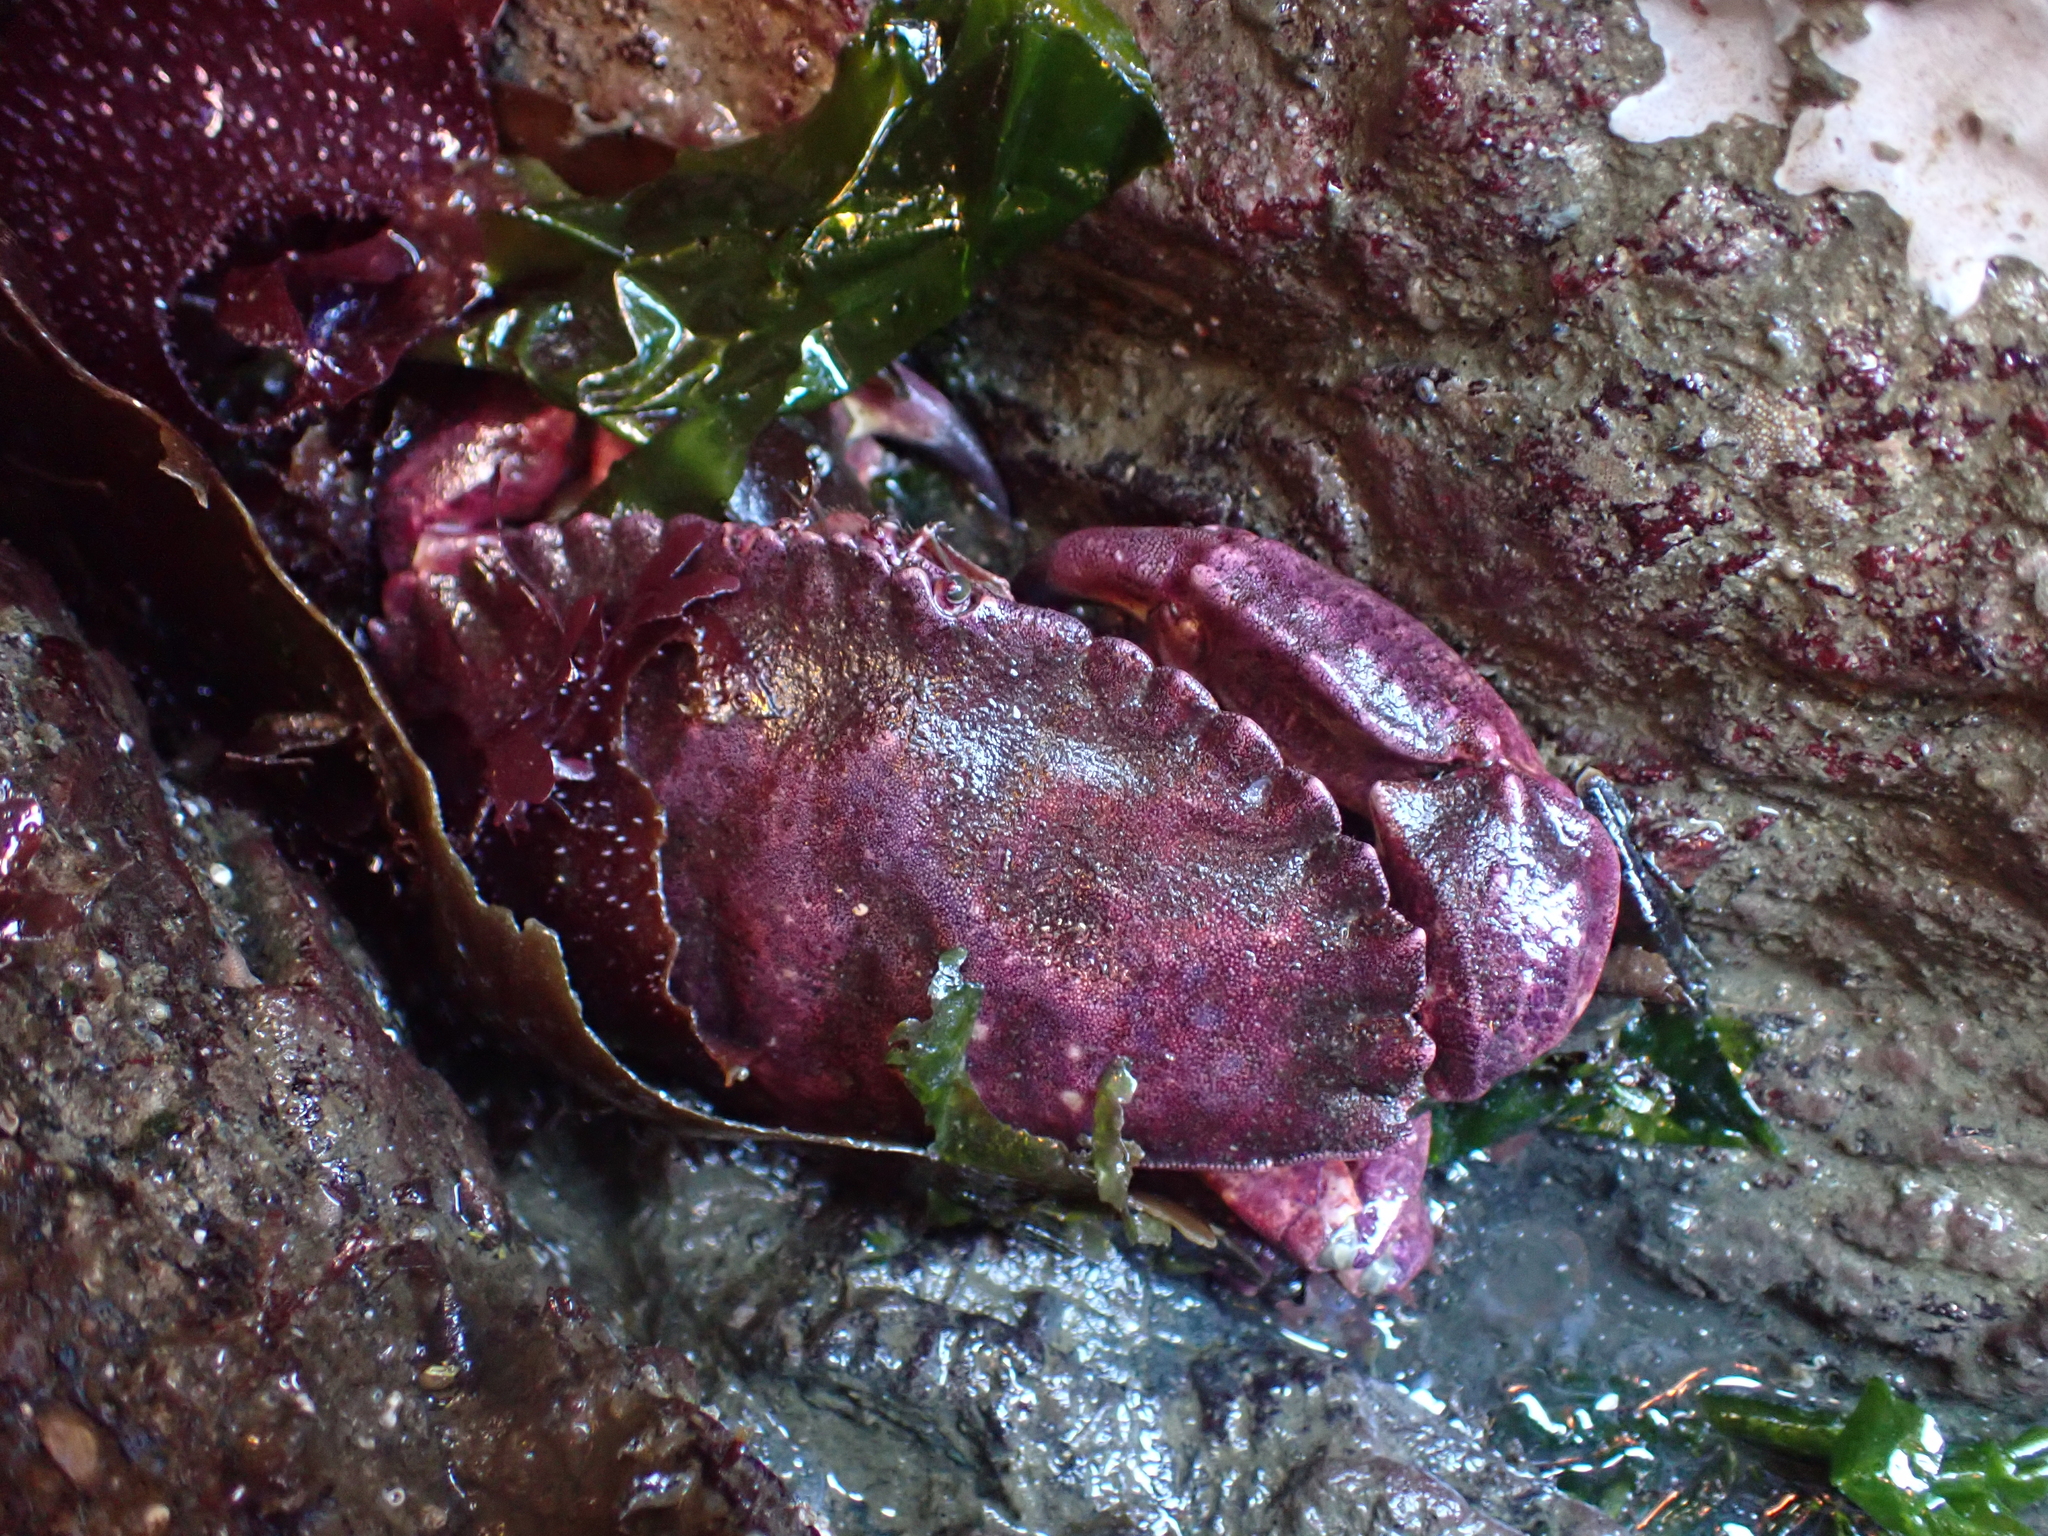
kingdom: Animalia
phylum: Arthropoda
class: Malacostraca
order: Decapoda
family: Cancridae
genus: Cancer
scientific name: Cancer productus
